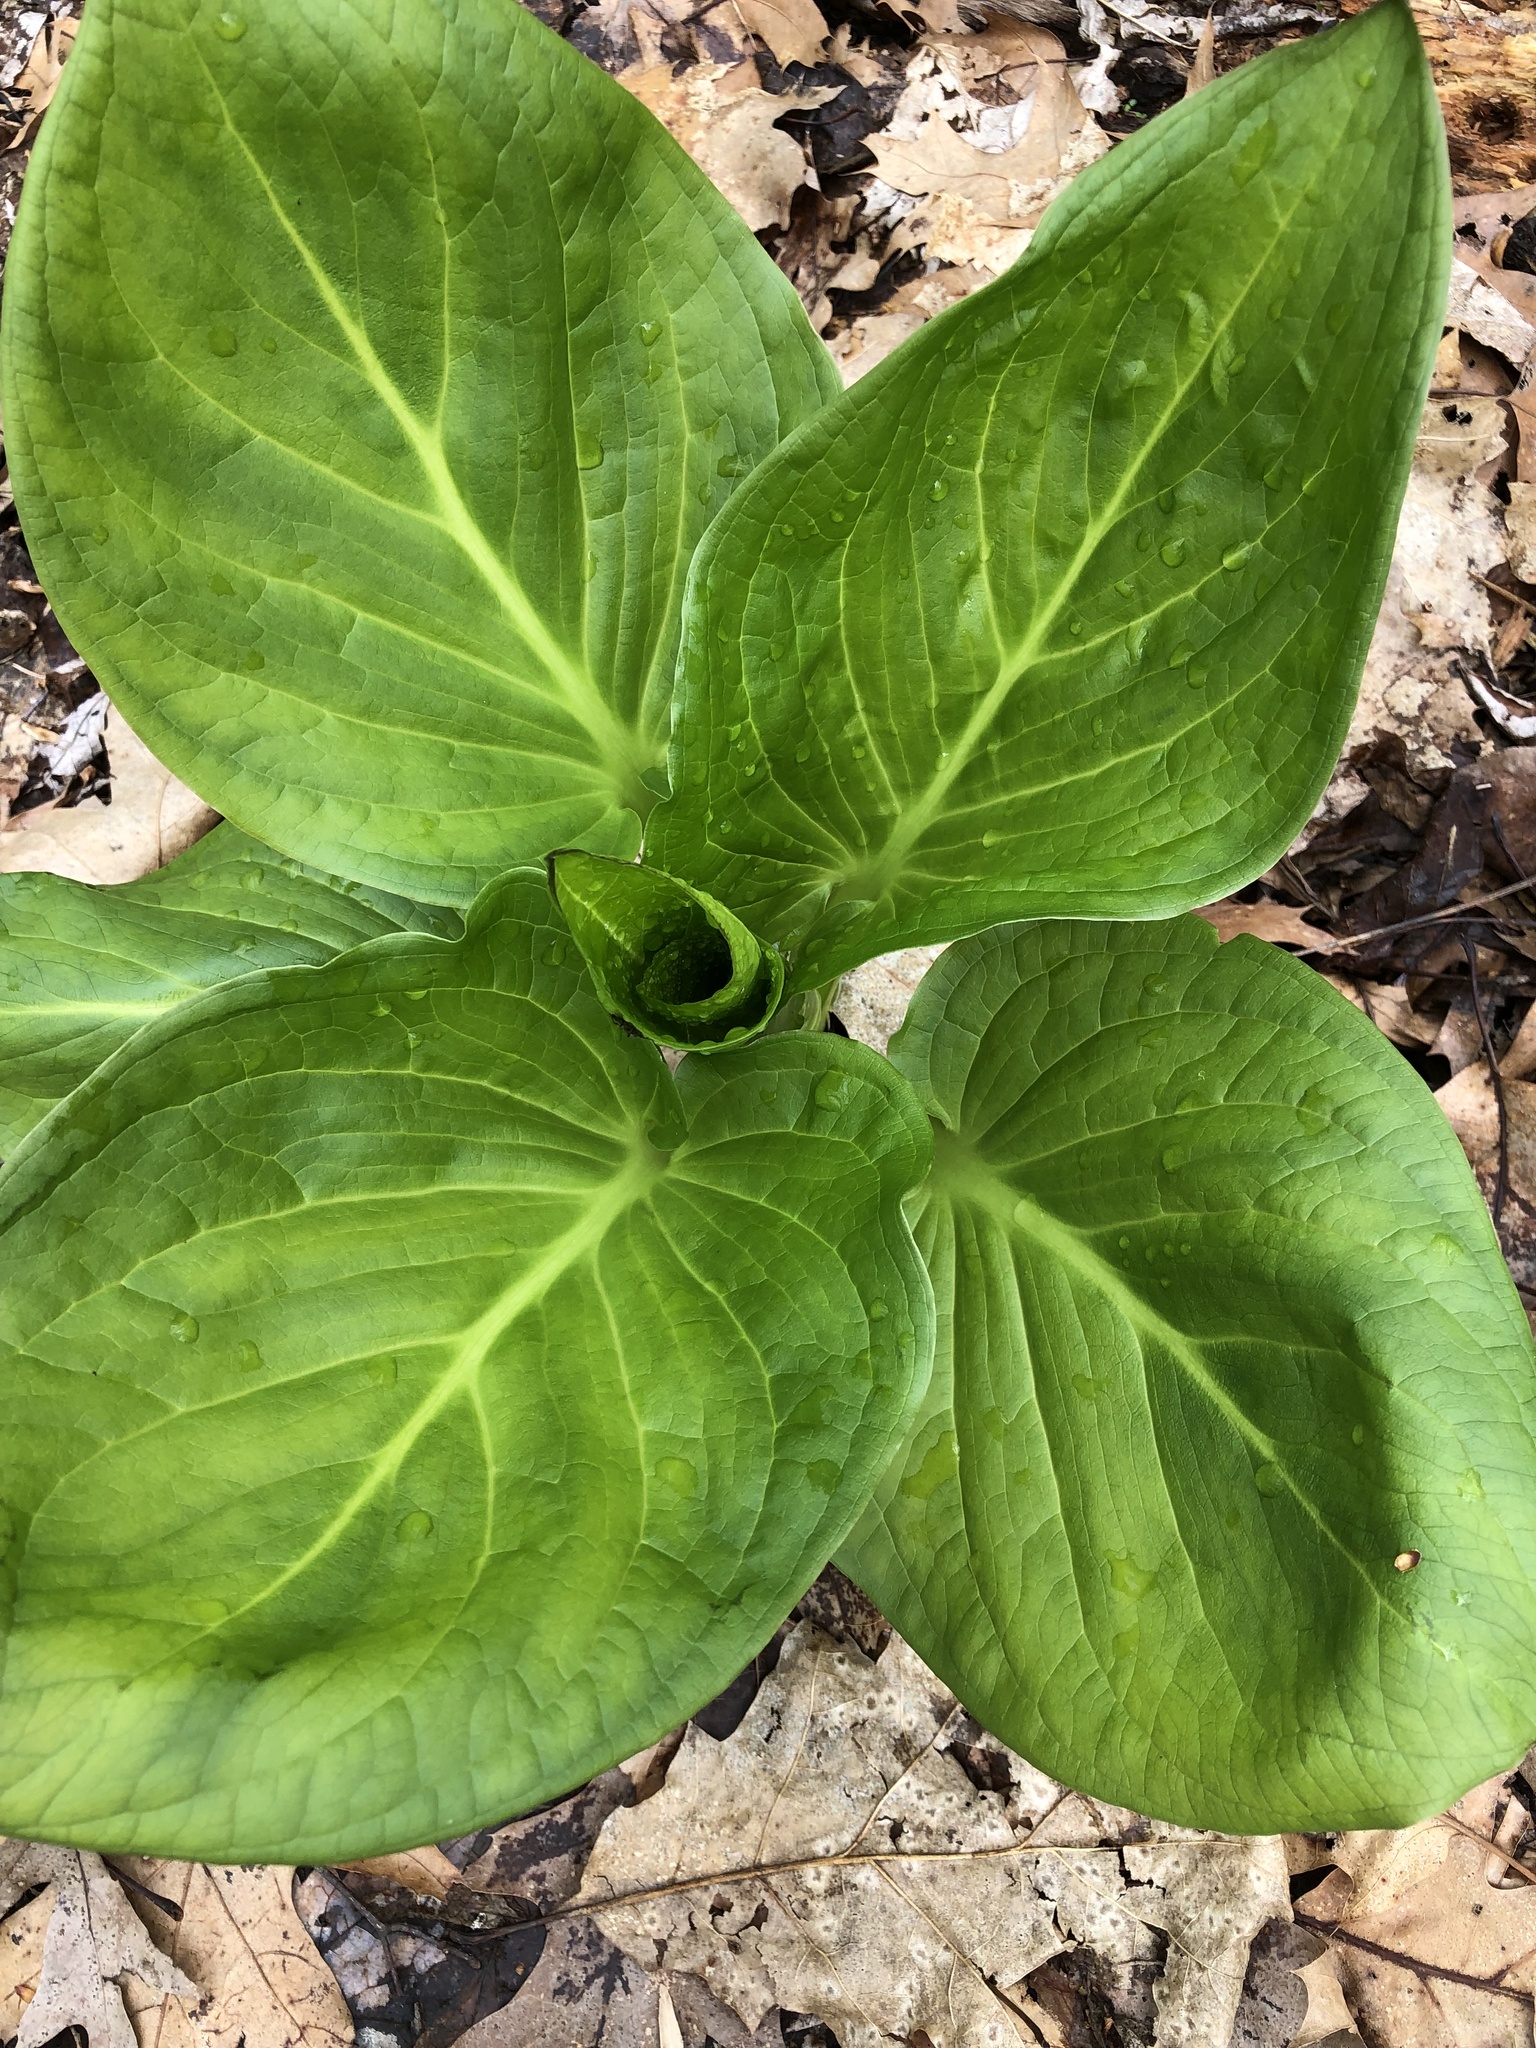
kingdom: Plantae
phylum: Tracheophyta
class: Liliopsida
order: Alismatales
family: Araceae
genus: Symplocarpus
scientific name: Symplocarpus foetidus
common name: Eastern skunk cabbage
